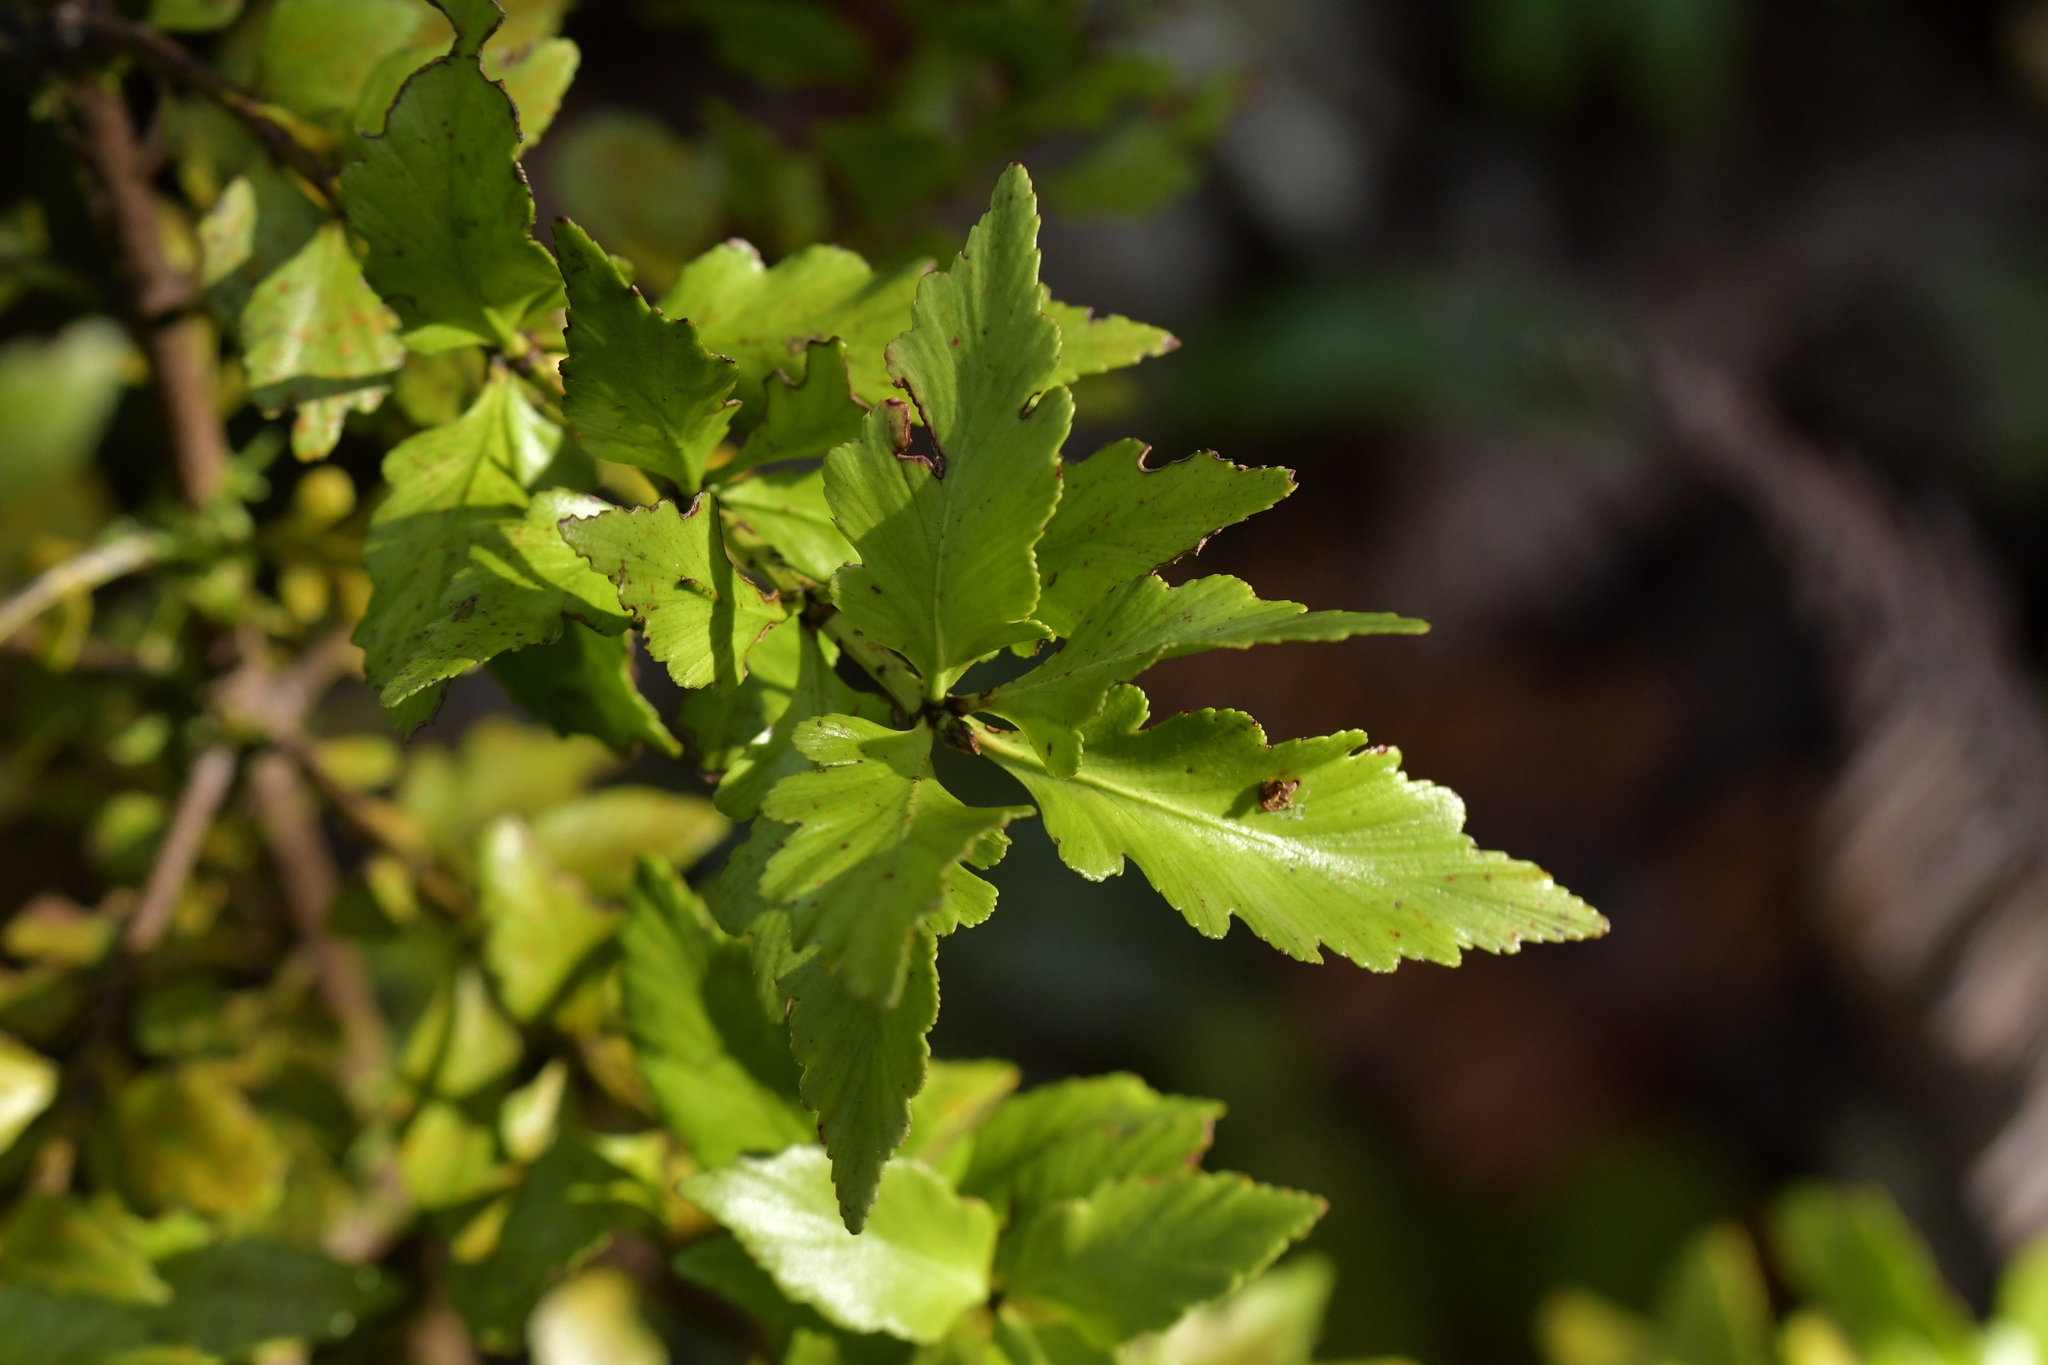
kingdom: Plantae
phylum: Tracheophyta
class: Pinopsida
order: Pinales
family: Phyllocladaceae
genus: Phyllocladus
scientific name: Phyllocladus trichomanoides
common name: Celery pine
